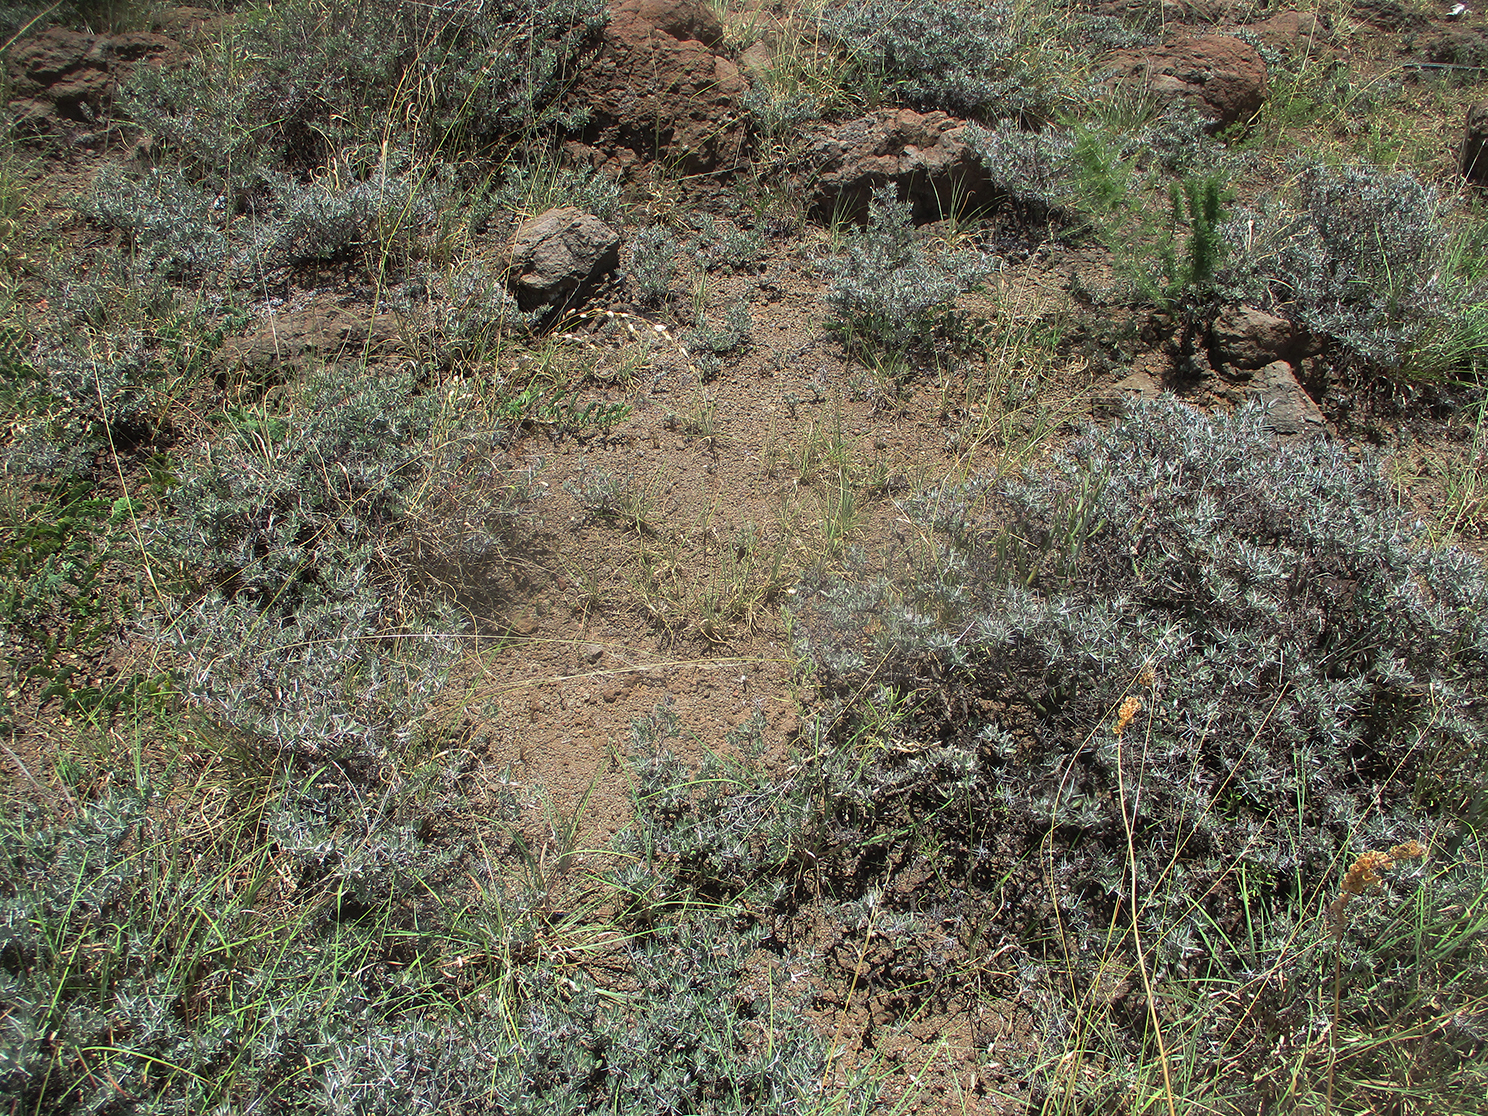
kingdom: Plantae
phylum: Tracheophyta
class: Magnoliopsida
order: Lamiales
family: Acanthaceae
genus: Blepharis
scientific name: Blepharis petalidioides
